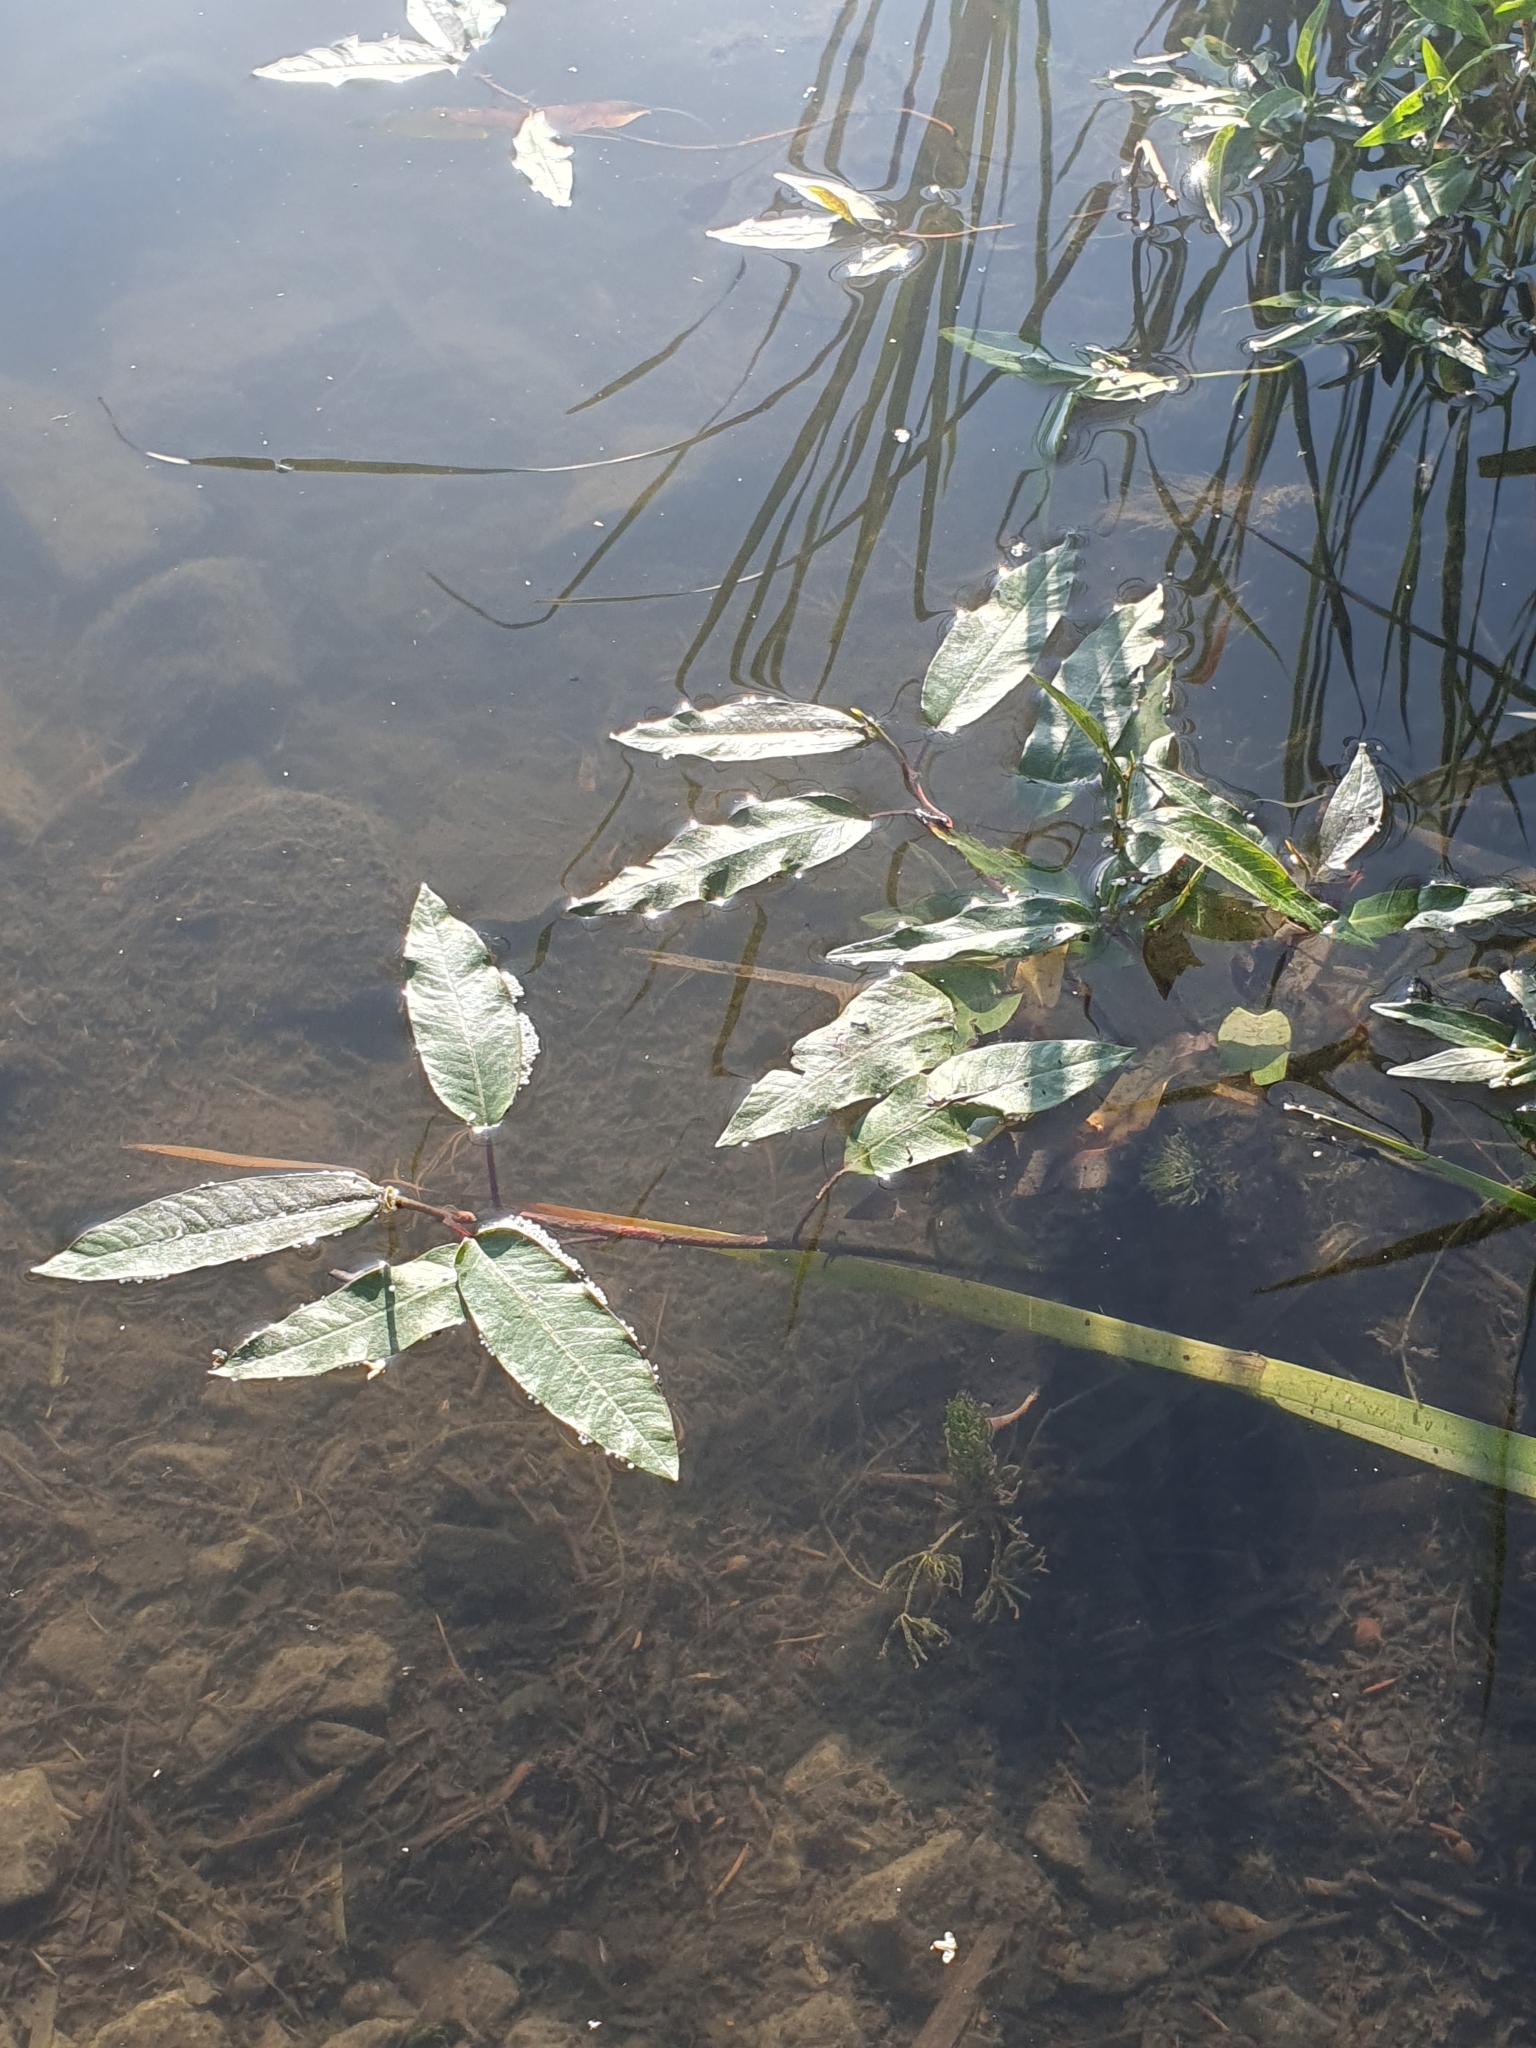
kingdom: Plantae
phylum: Tracheophyta
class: Magnoliopsida
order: Caryophyllales
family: Polygonaceae
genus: Persicaria
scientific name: Persicaria amphibia
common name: Amphibious bistort
